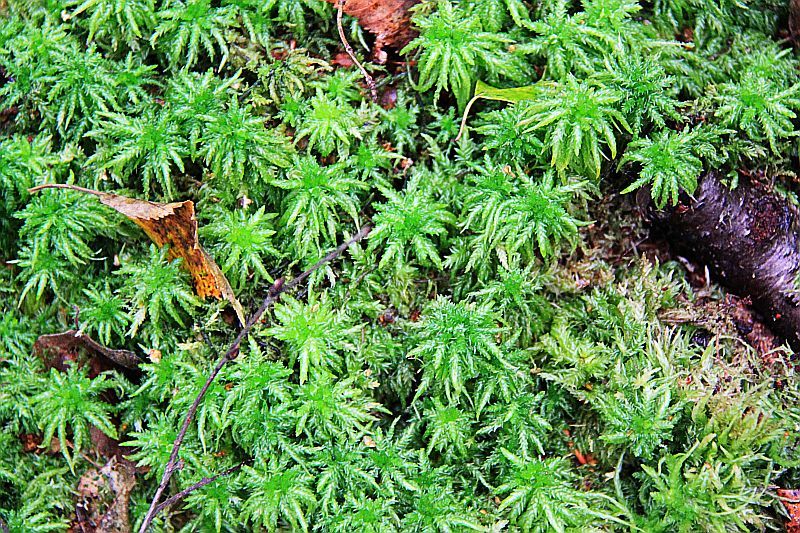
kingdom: Plantae
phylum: Bryophyta
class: Sphagnopsida
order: Sphagnales
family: Sphagnaceae
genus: Sphagnum
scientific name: Sphagnum squarrosum
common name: Shaggy peat moss
